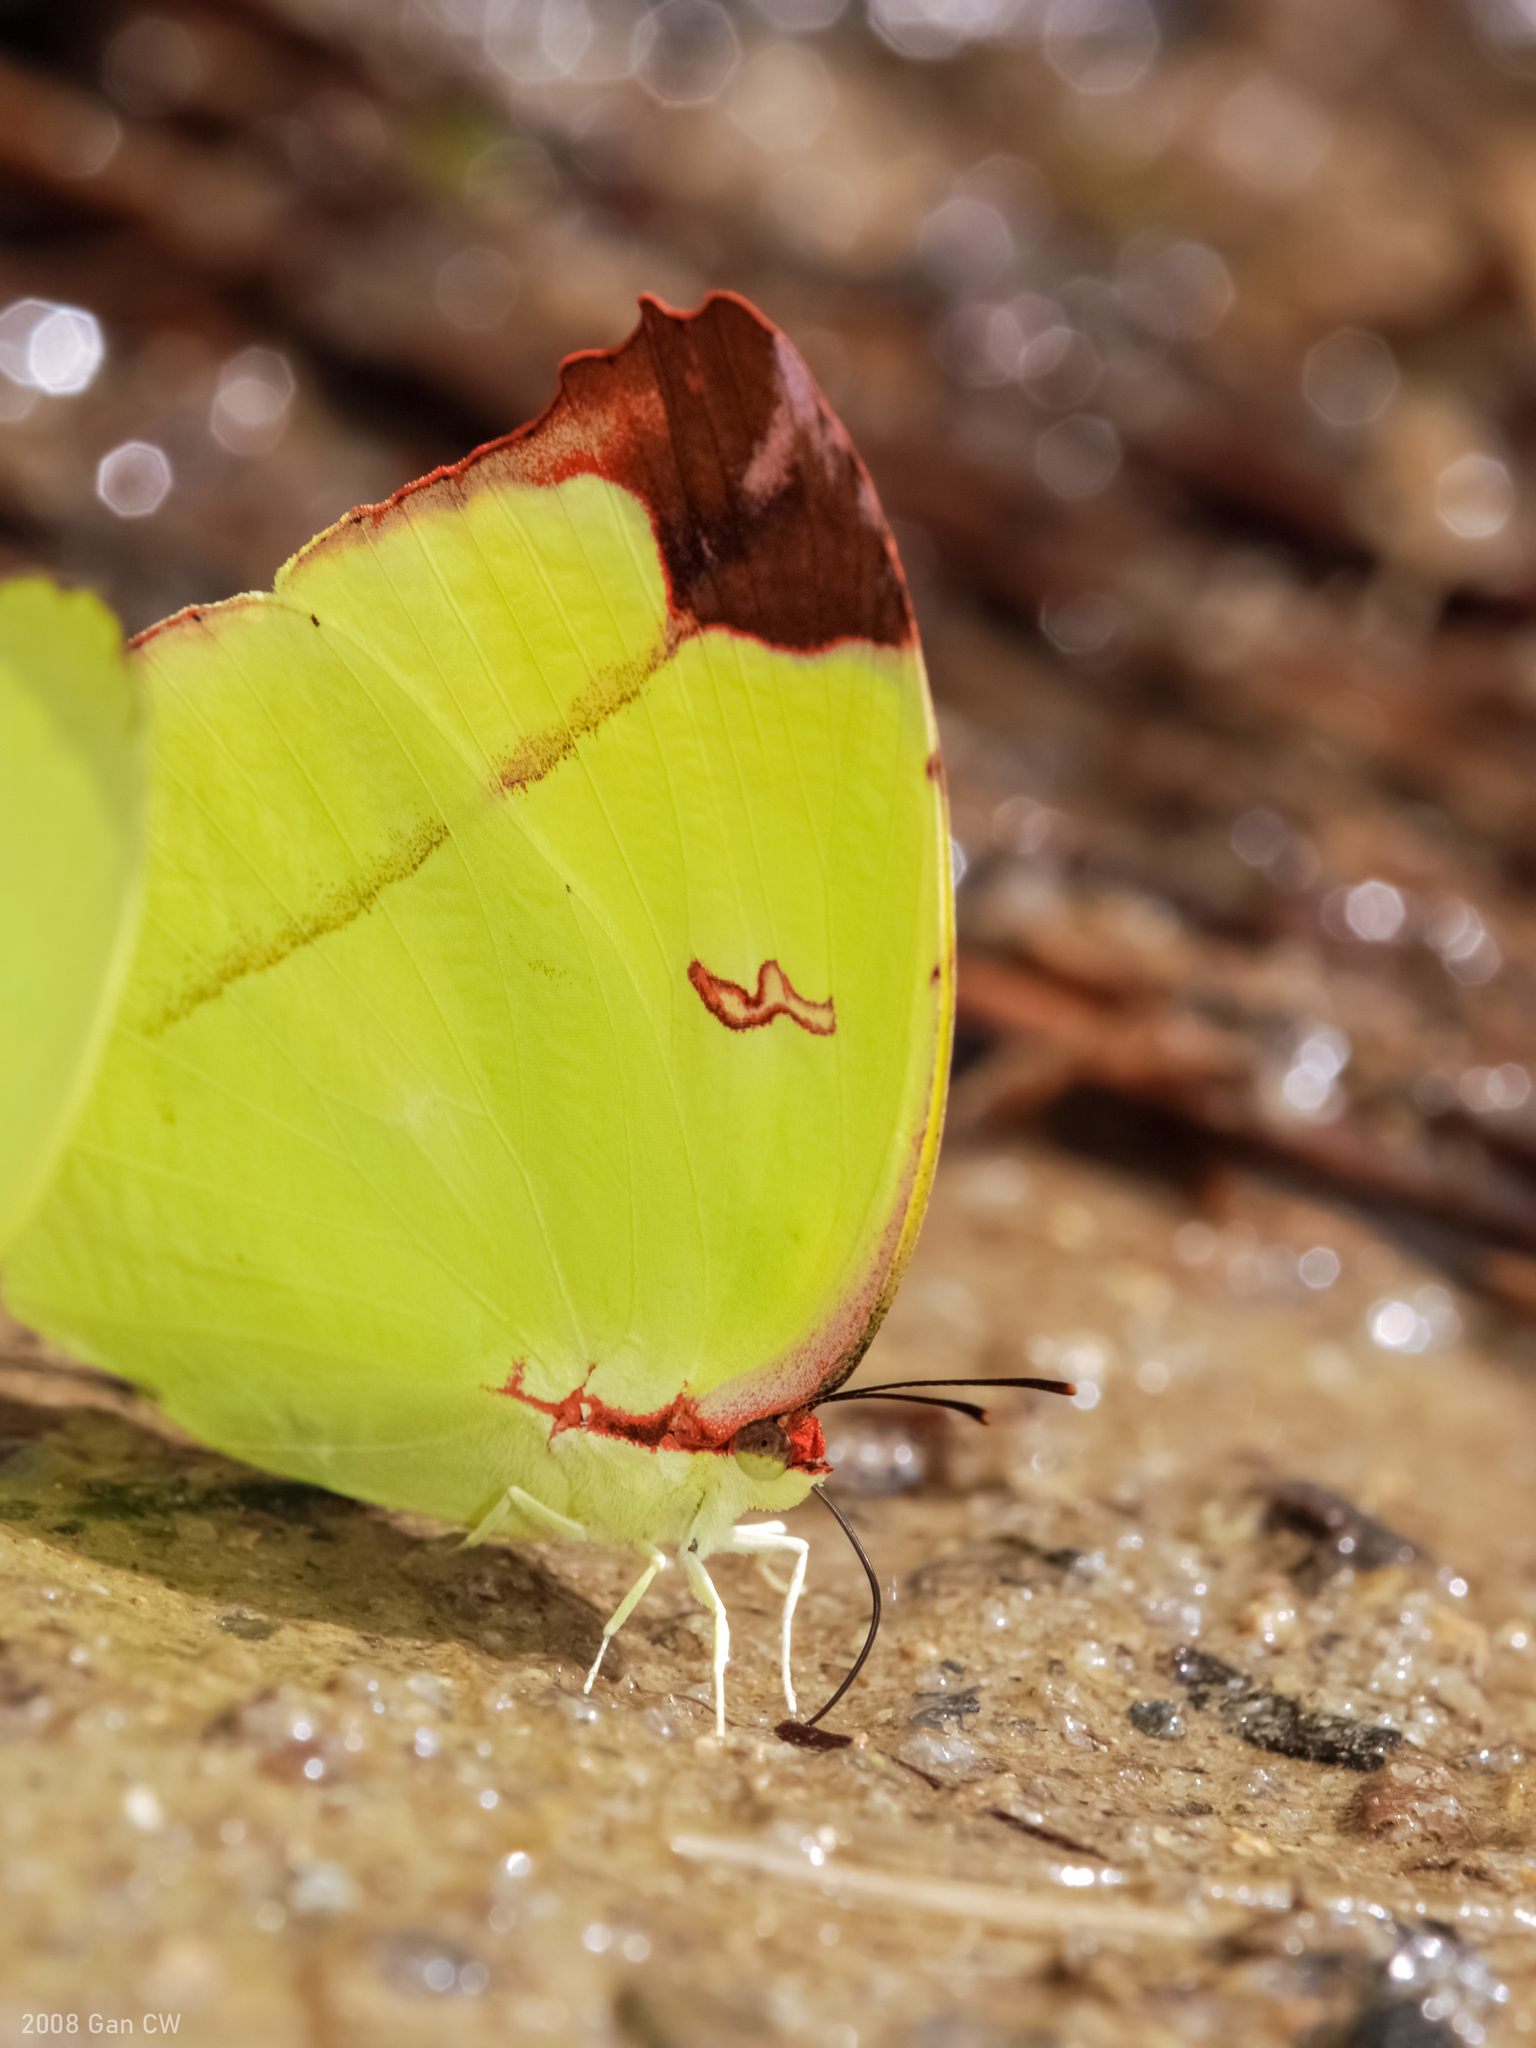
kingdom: Animalia
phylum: Arthropoda
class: Insecta
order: Lepidoptera
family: Pieridae
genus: Dercas
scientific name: Dercas gobrias
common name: Angled sulfur
